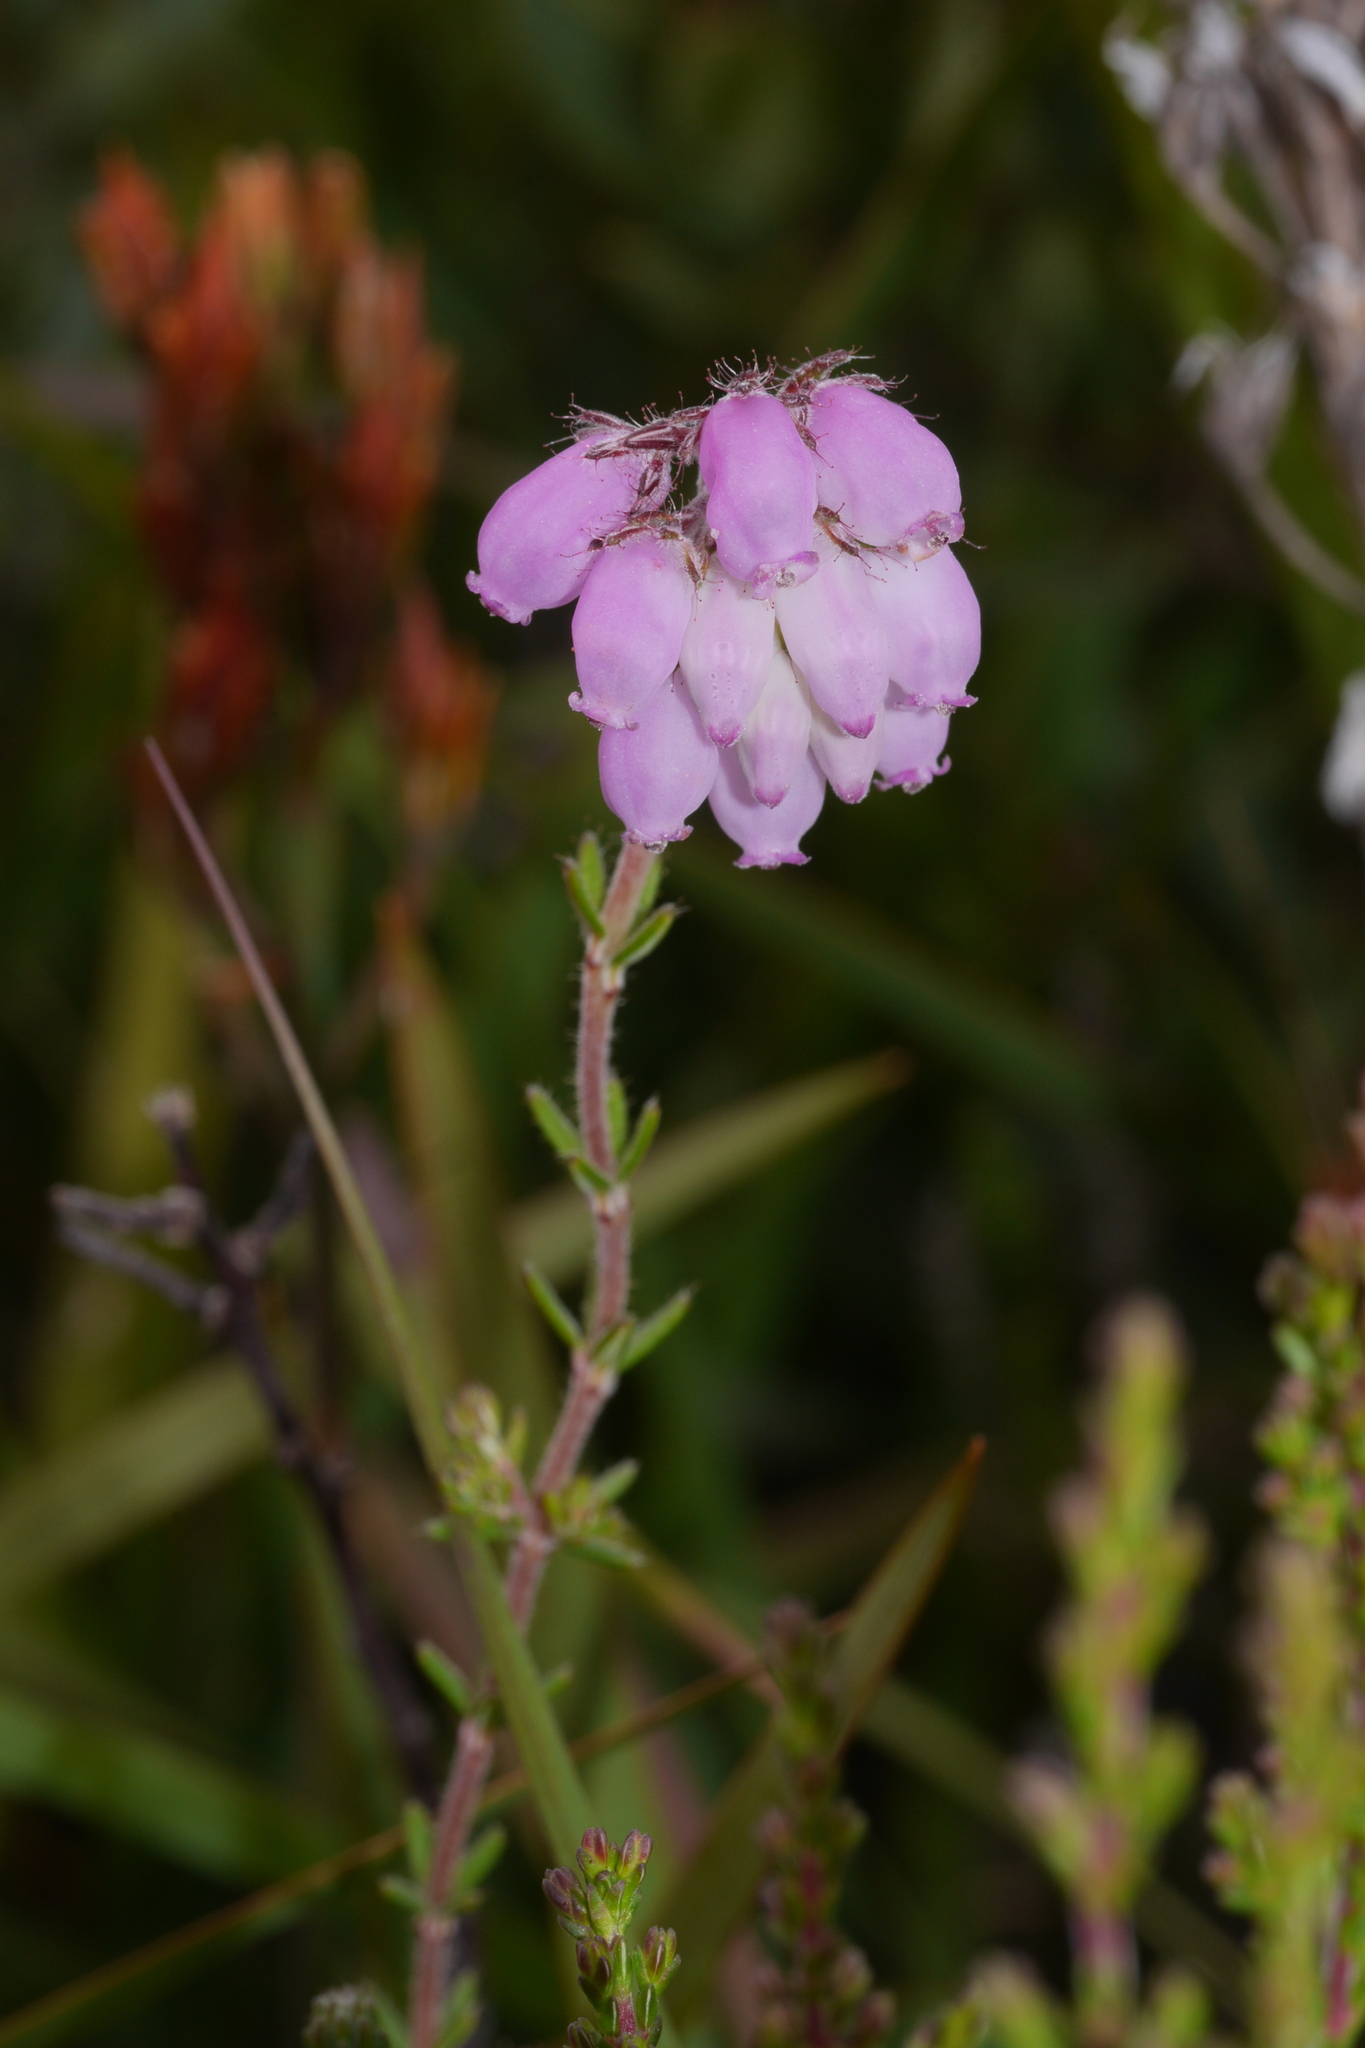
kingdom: Plantae
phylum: Tracheophyta
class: Magnoliopsida
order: Ericales
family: Ericaceae
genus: Erica
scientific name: Erica tetralix
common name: Cross-leaved heath
